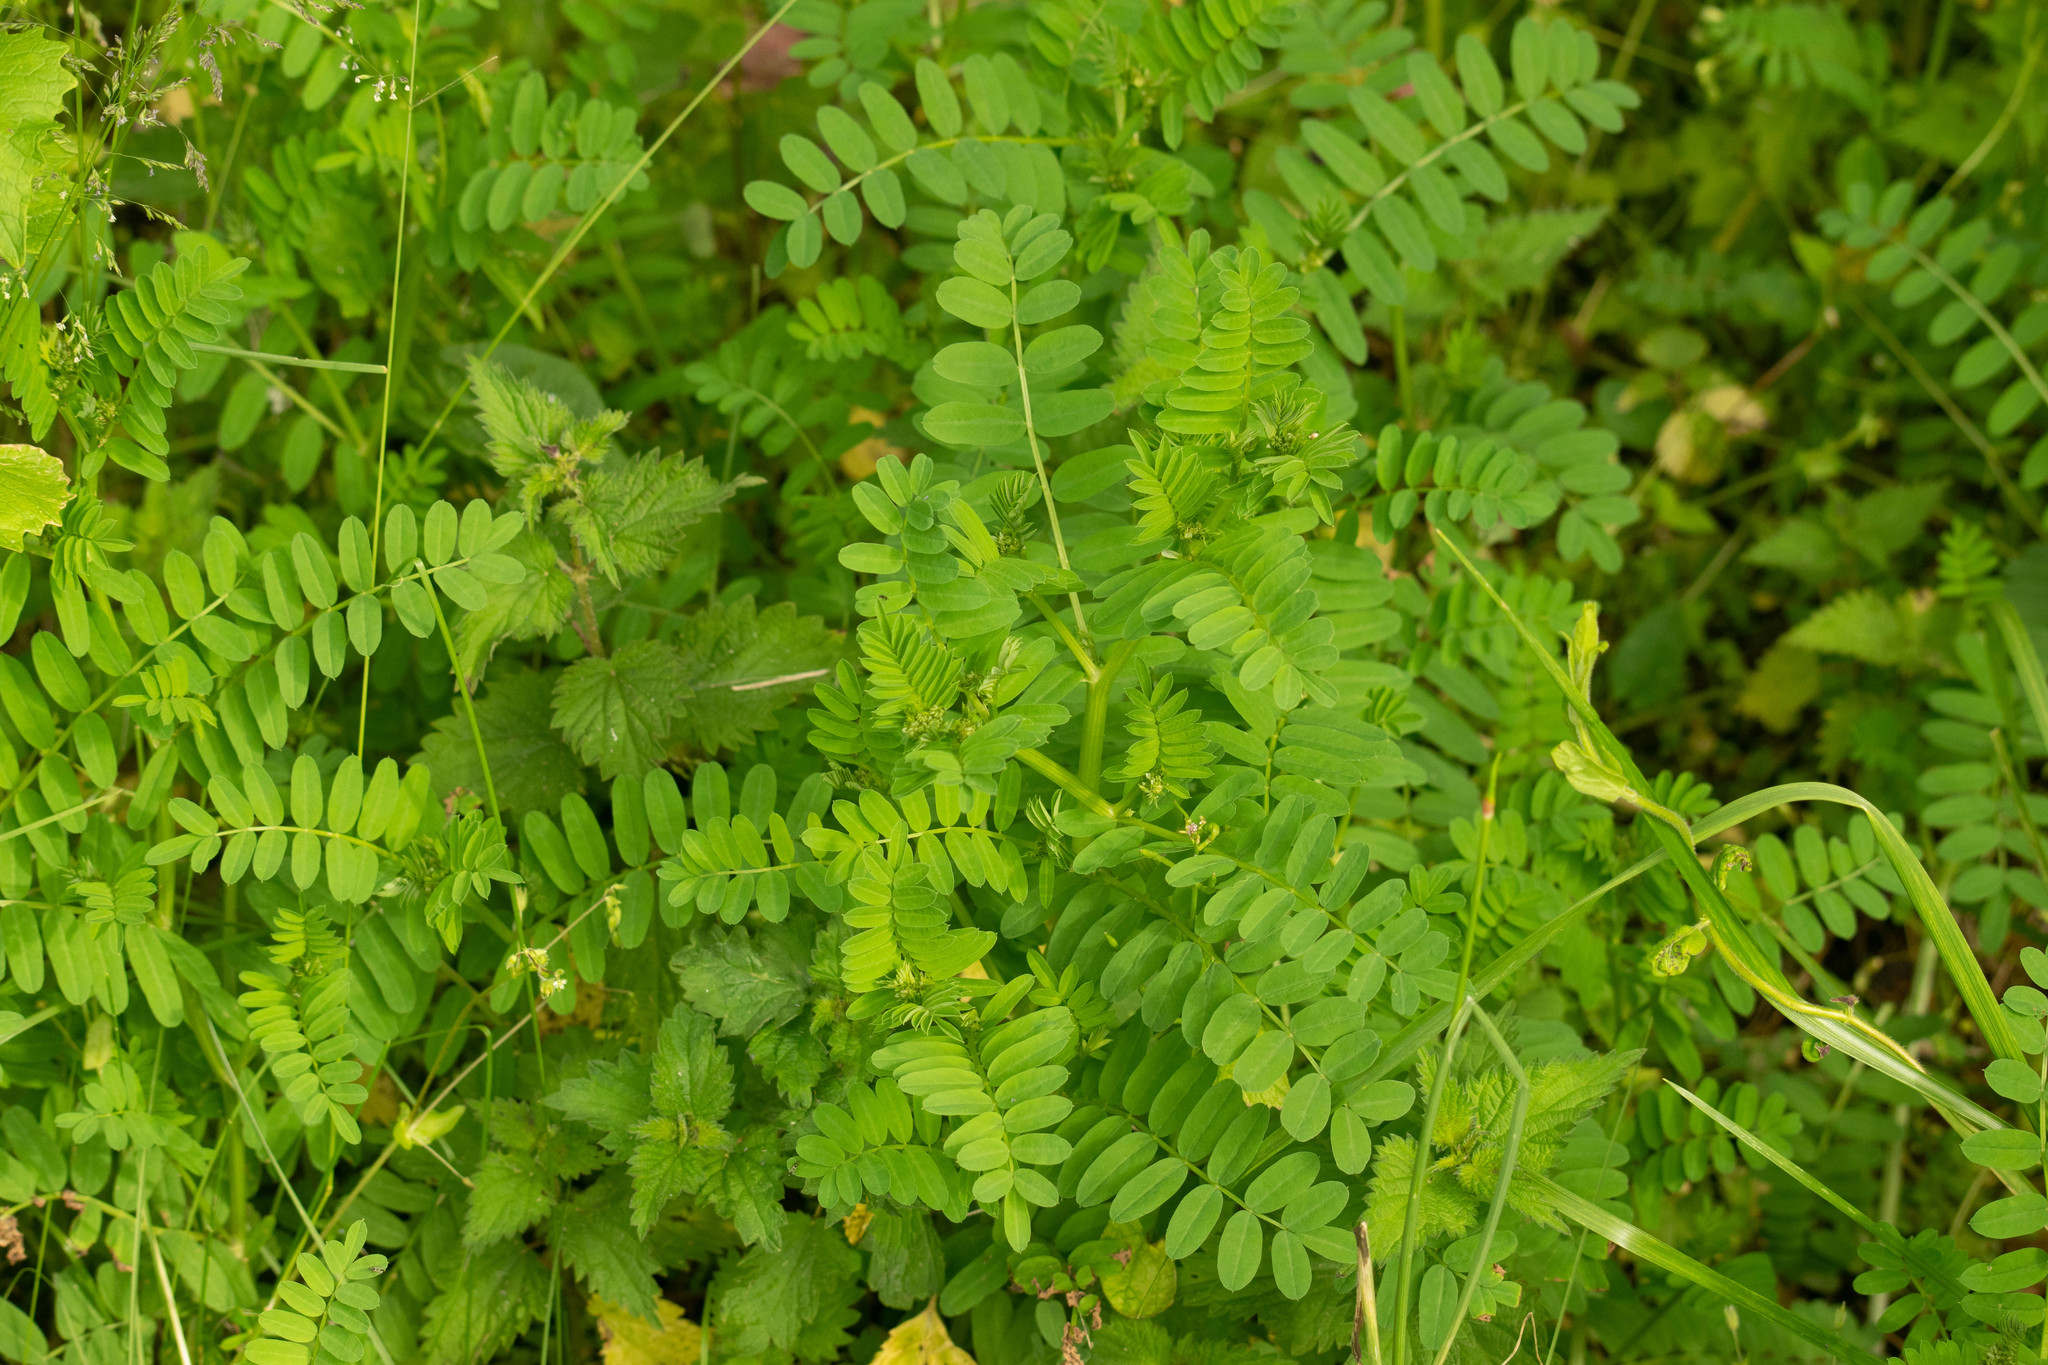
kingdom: Plantae
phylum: Tracheophyta
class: Magnoliopsida
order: Fabales
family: Fabaceae
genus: Coronilla
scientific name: Coronilla varia
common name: Crownvetch
